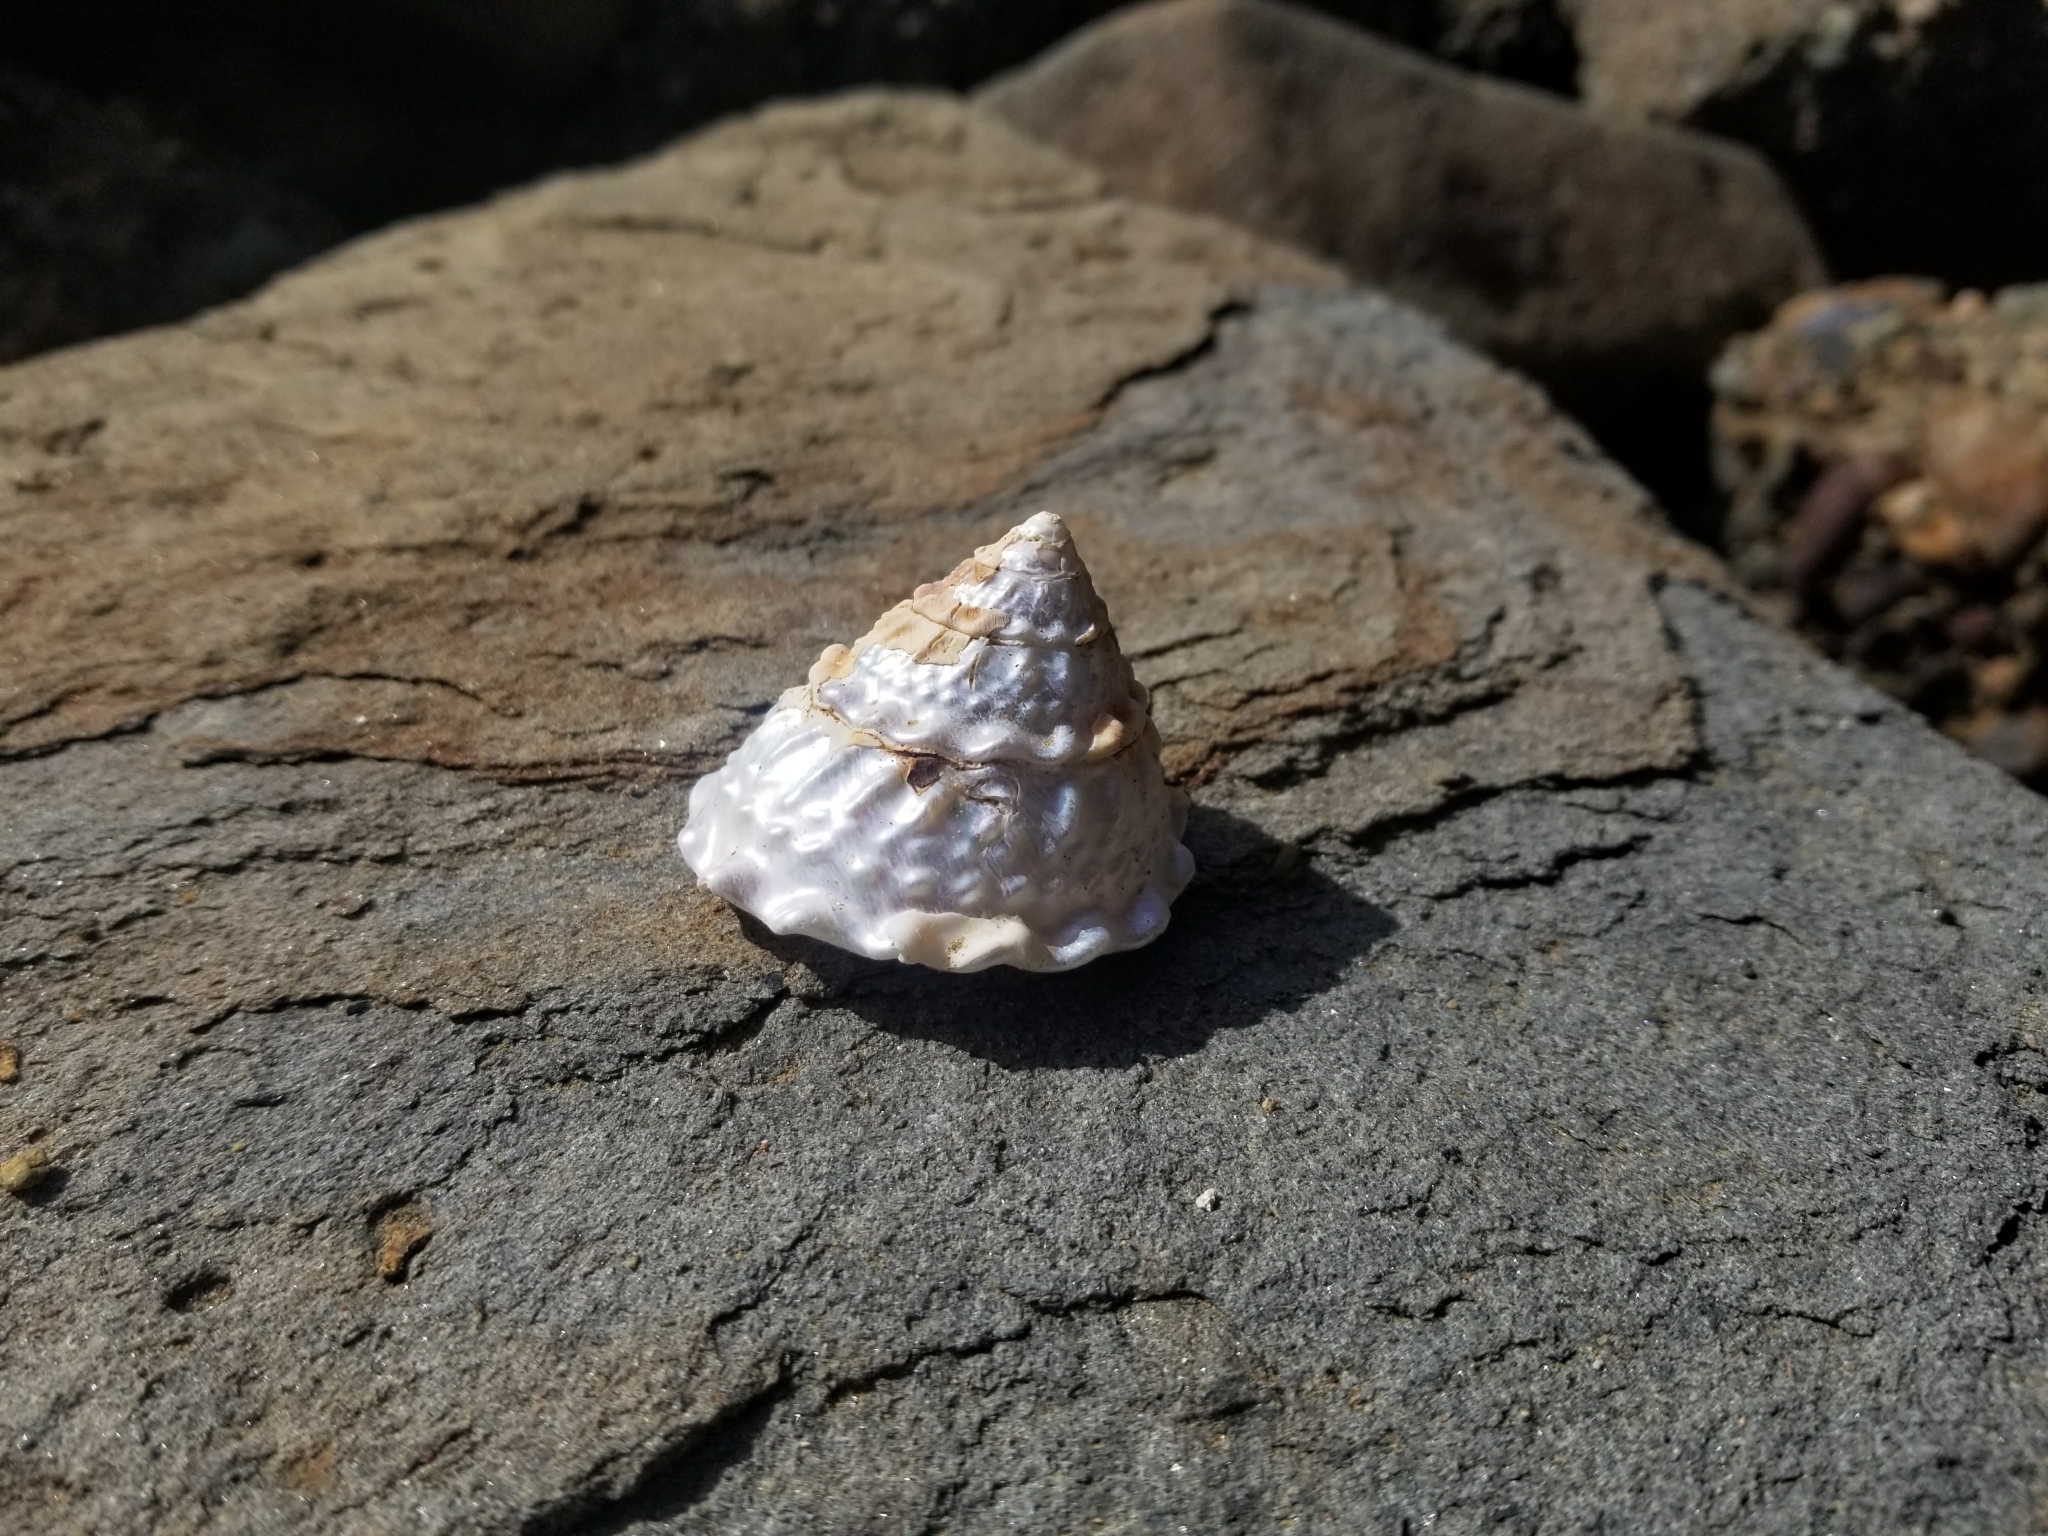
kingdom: Animalia
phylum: Mollusca
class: Gastropoda
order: Trochida
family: Turbinidae
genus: Megastraea
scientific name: Megastraea undosa
